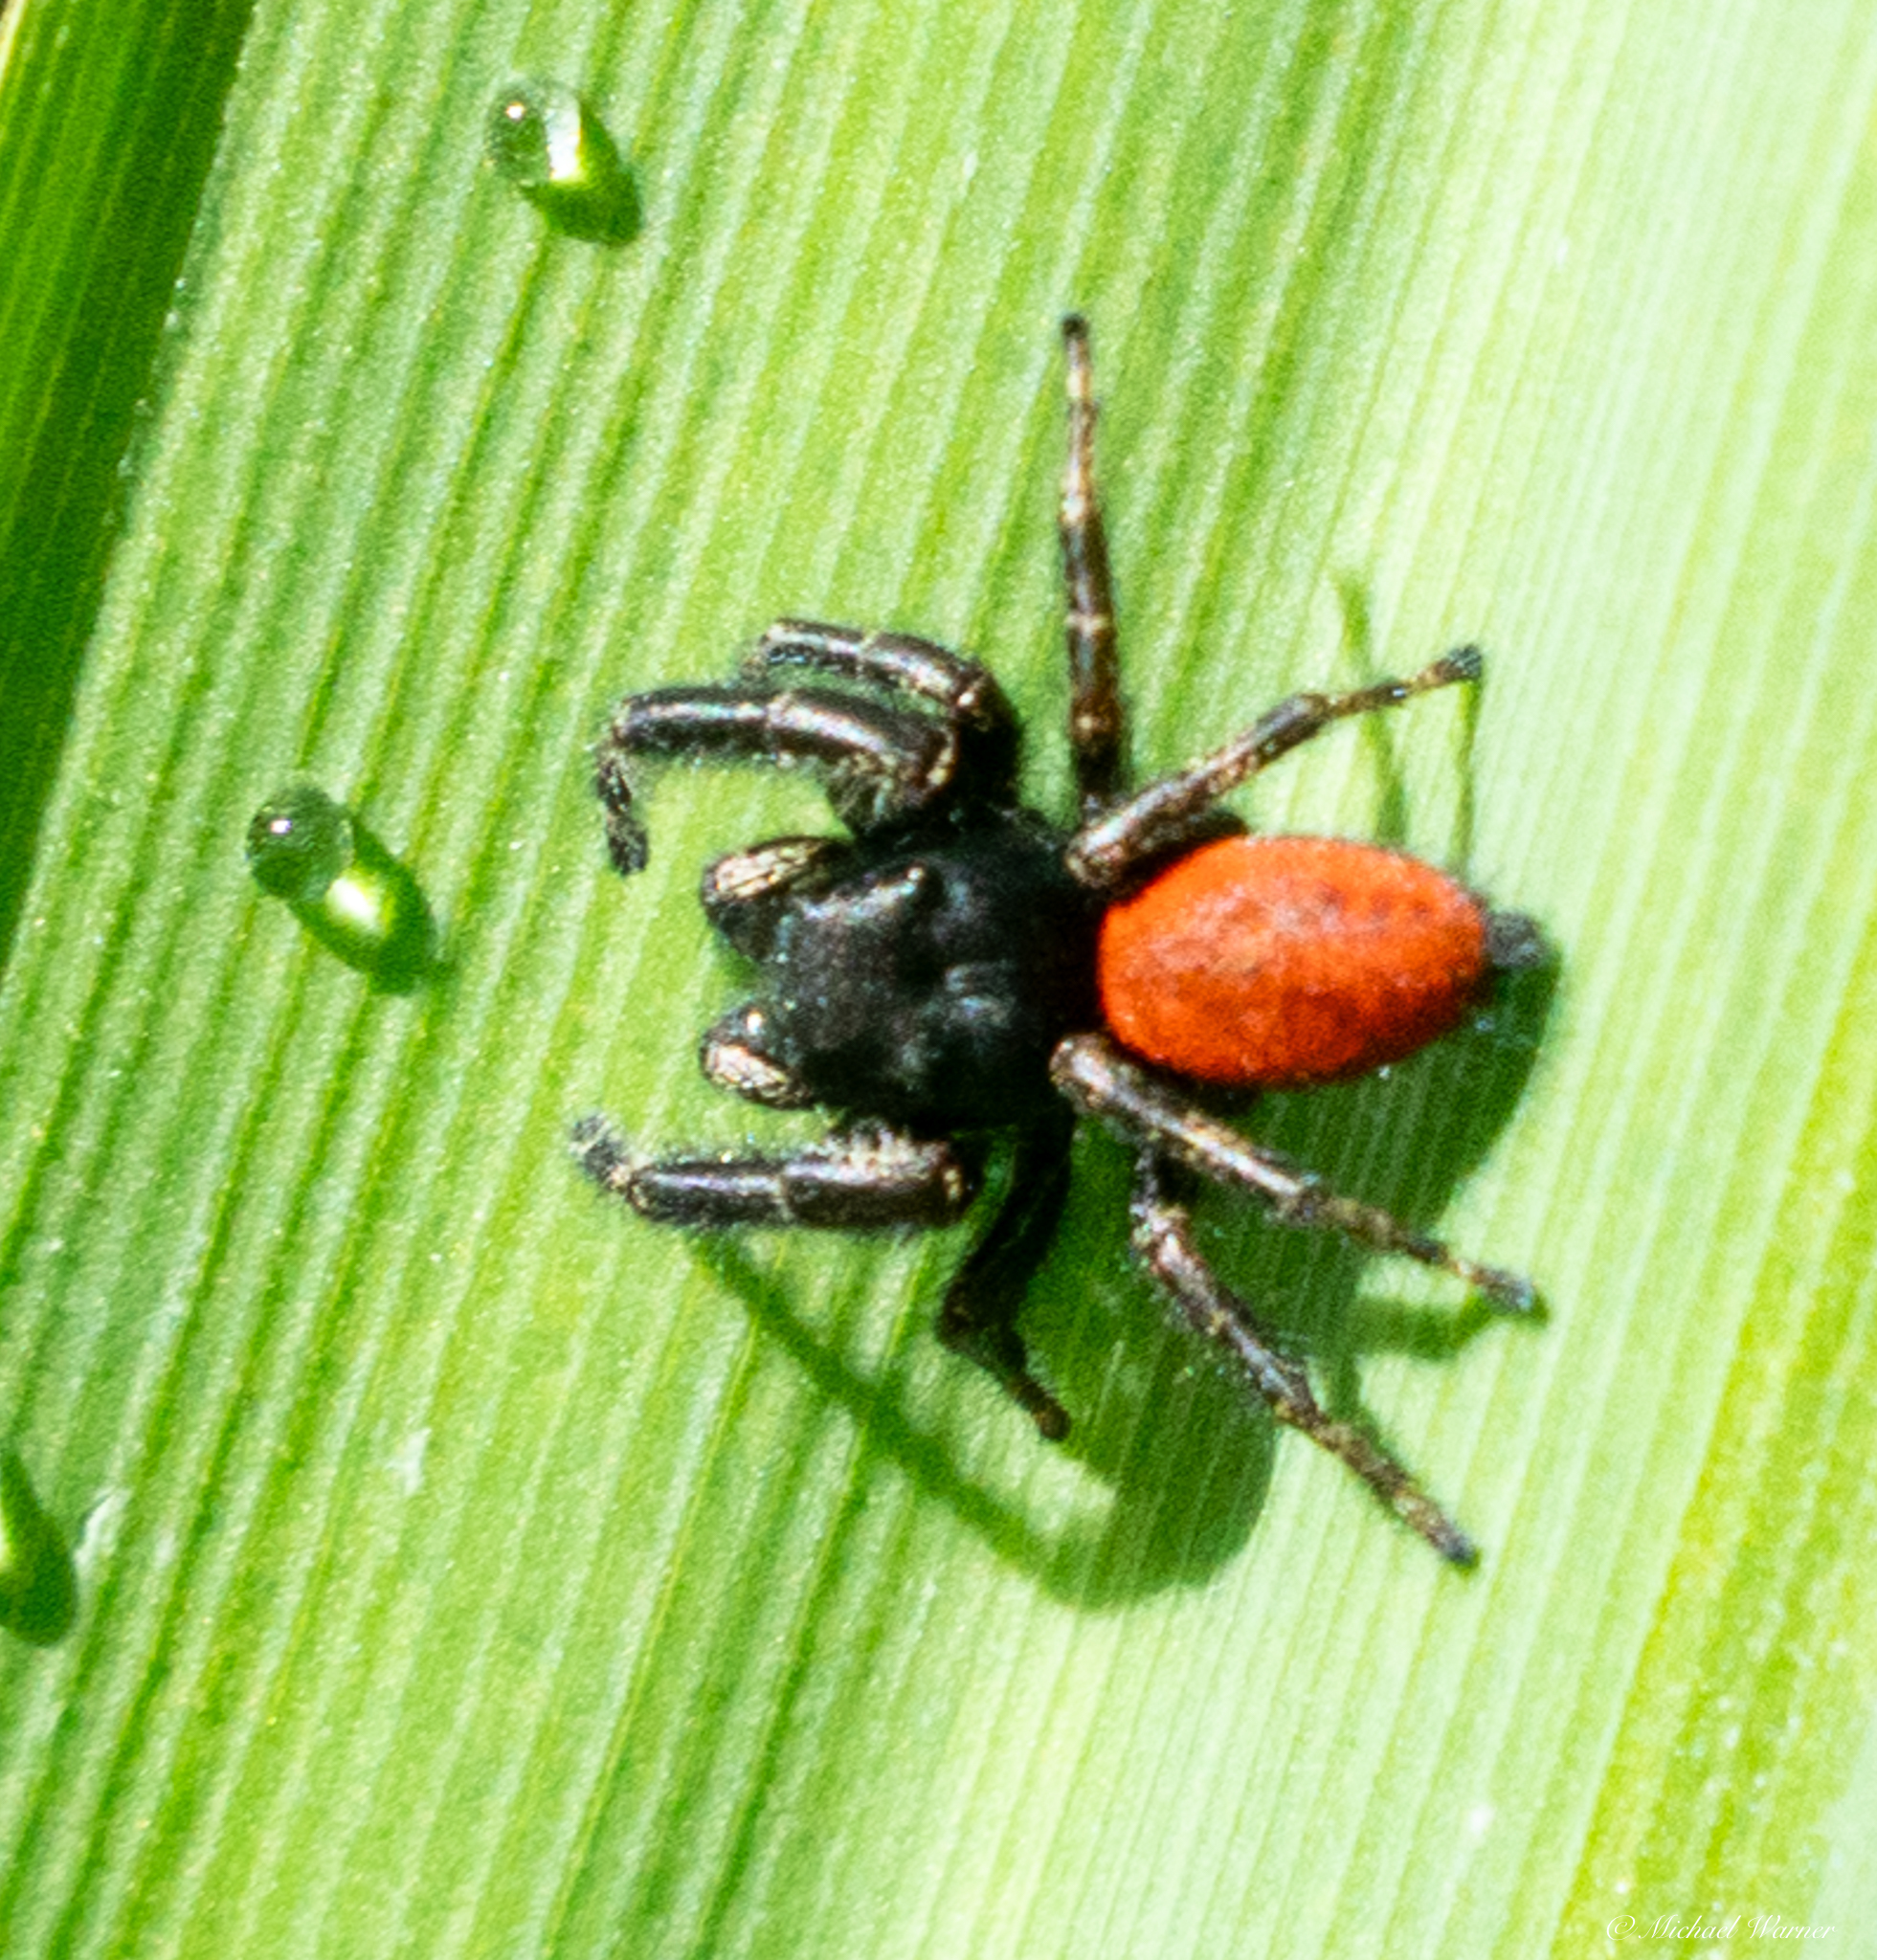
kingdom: Animalia
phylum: Arthropoda
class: Arachnida
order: Araneae
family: Salticidae
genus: Phidippus
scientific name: Phidippus johnsoni
